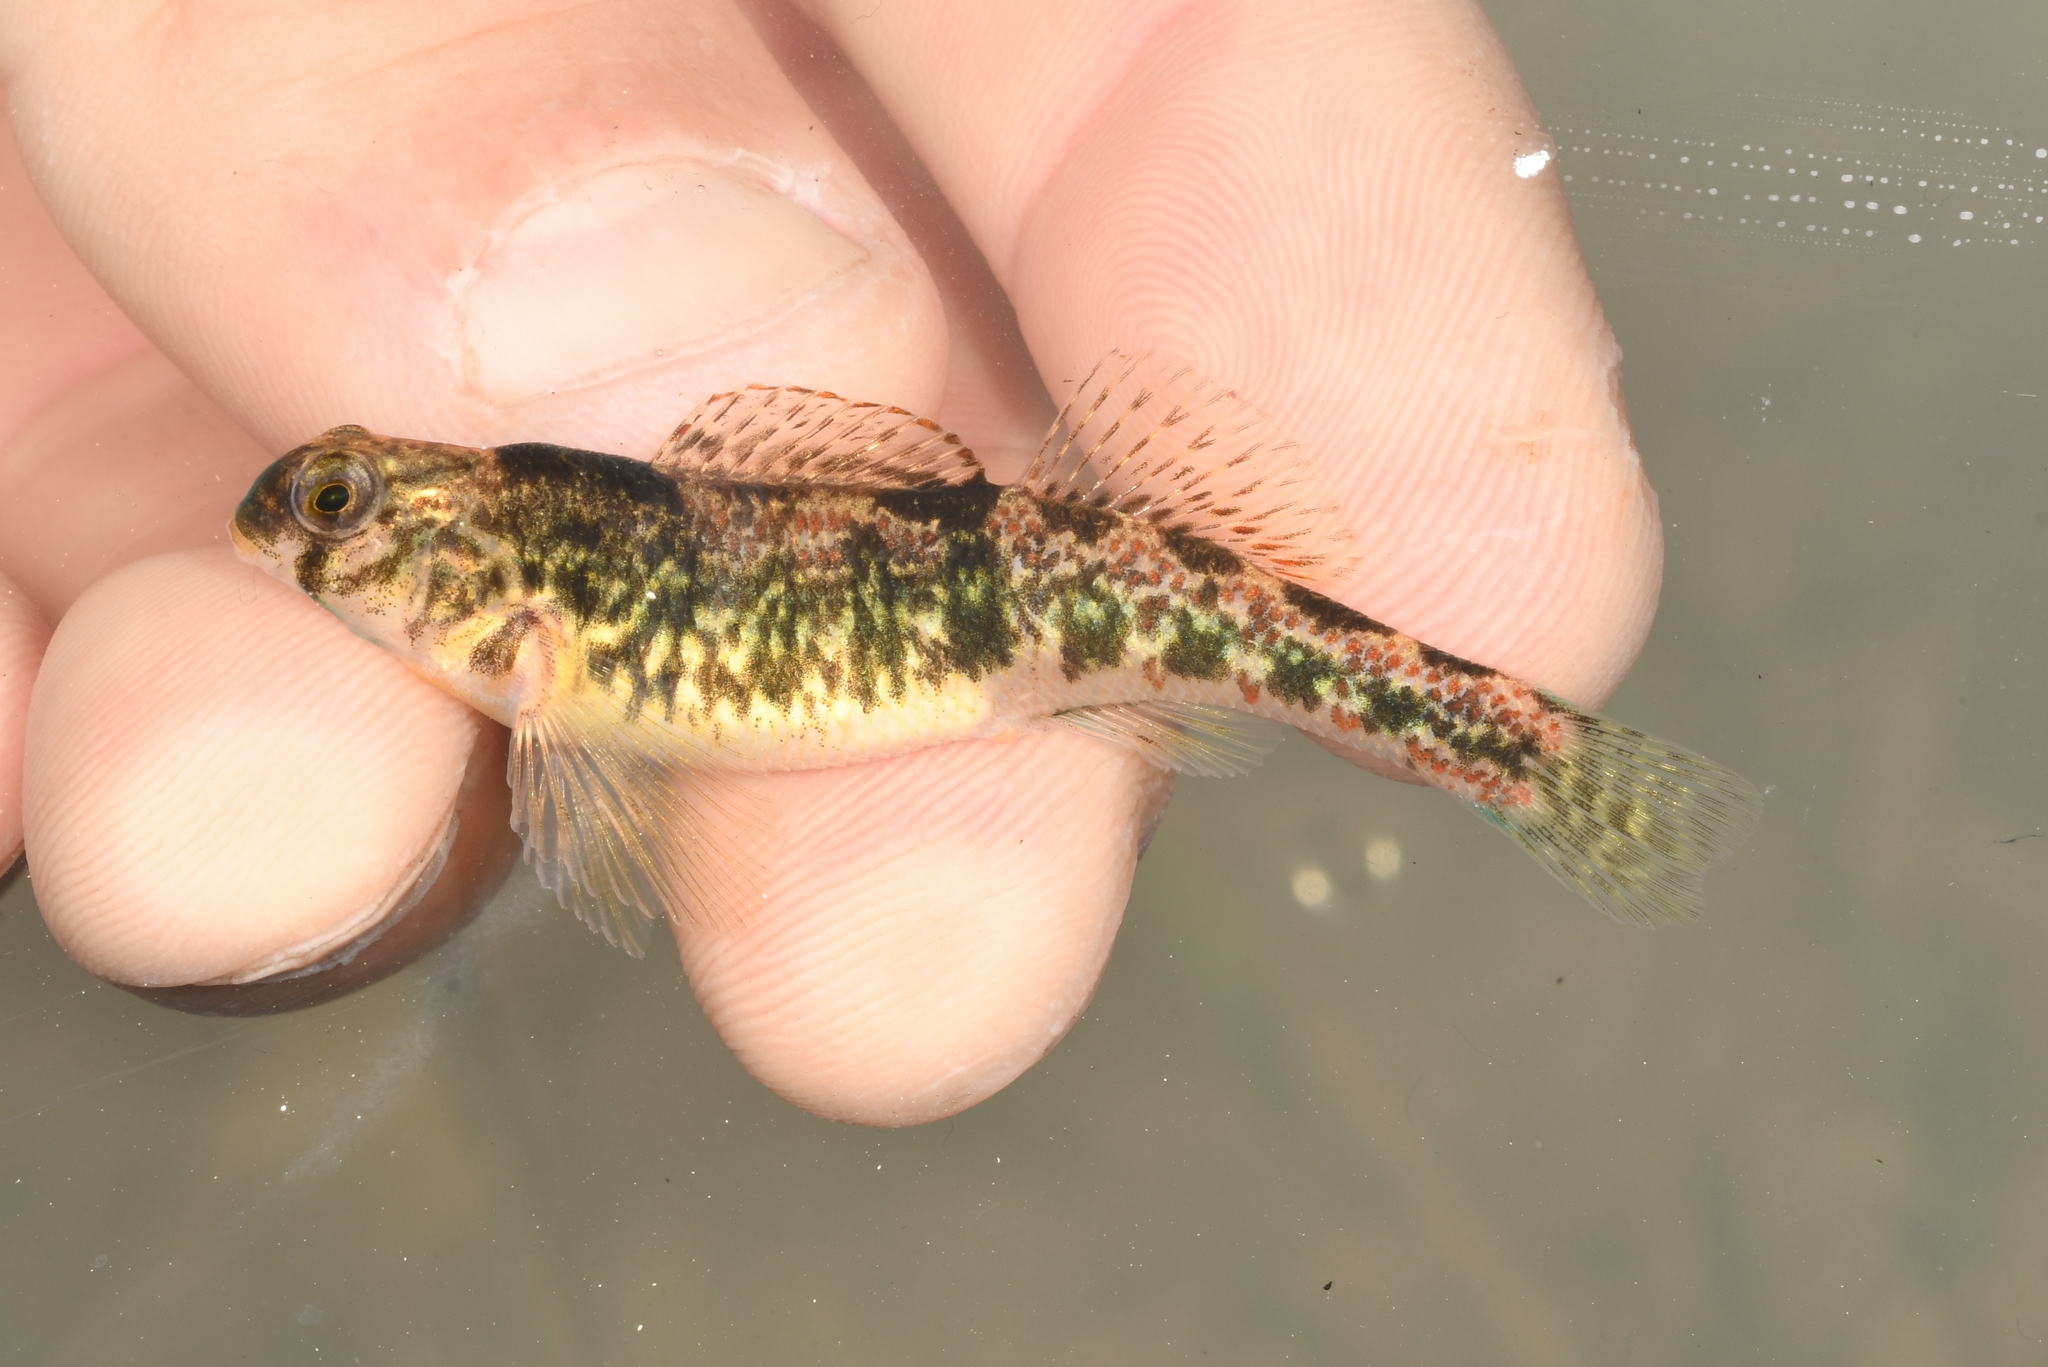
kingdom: Animalia
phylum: Chordata
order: Perciformes
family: Percidae
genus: Etheostoma
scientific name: Etheostoma simoterum
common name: Snubnose darter
